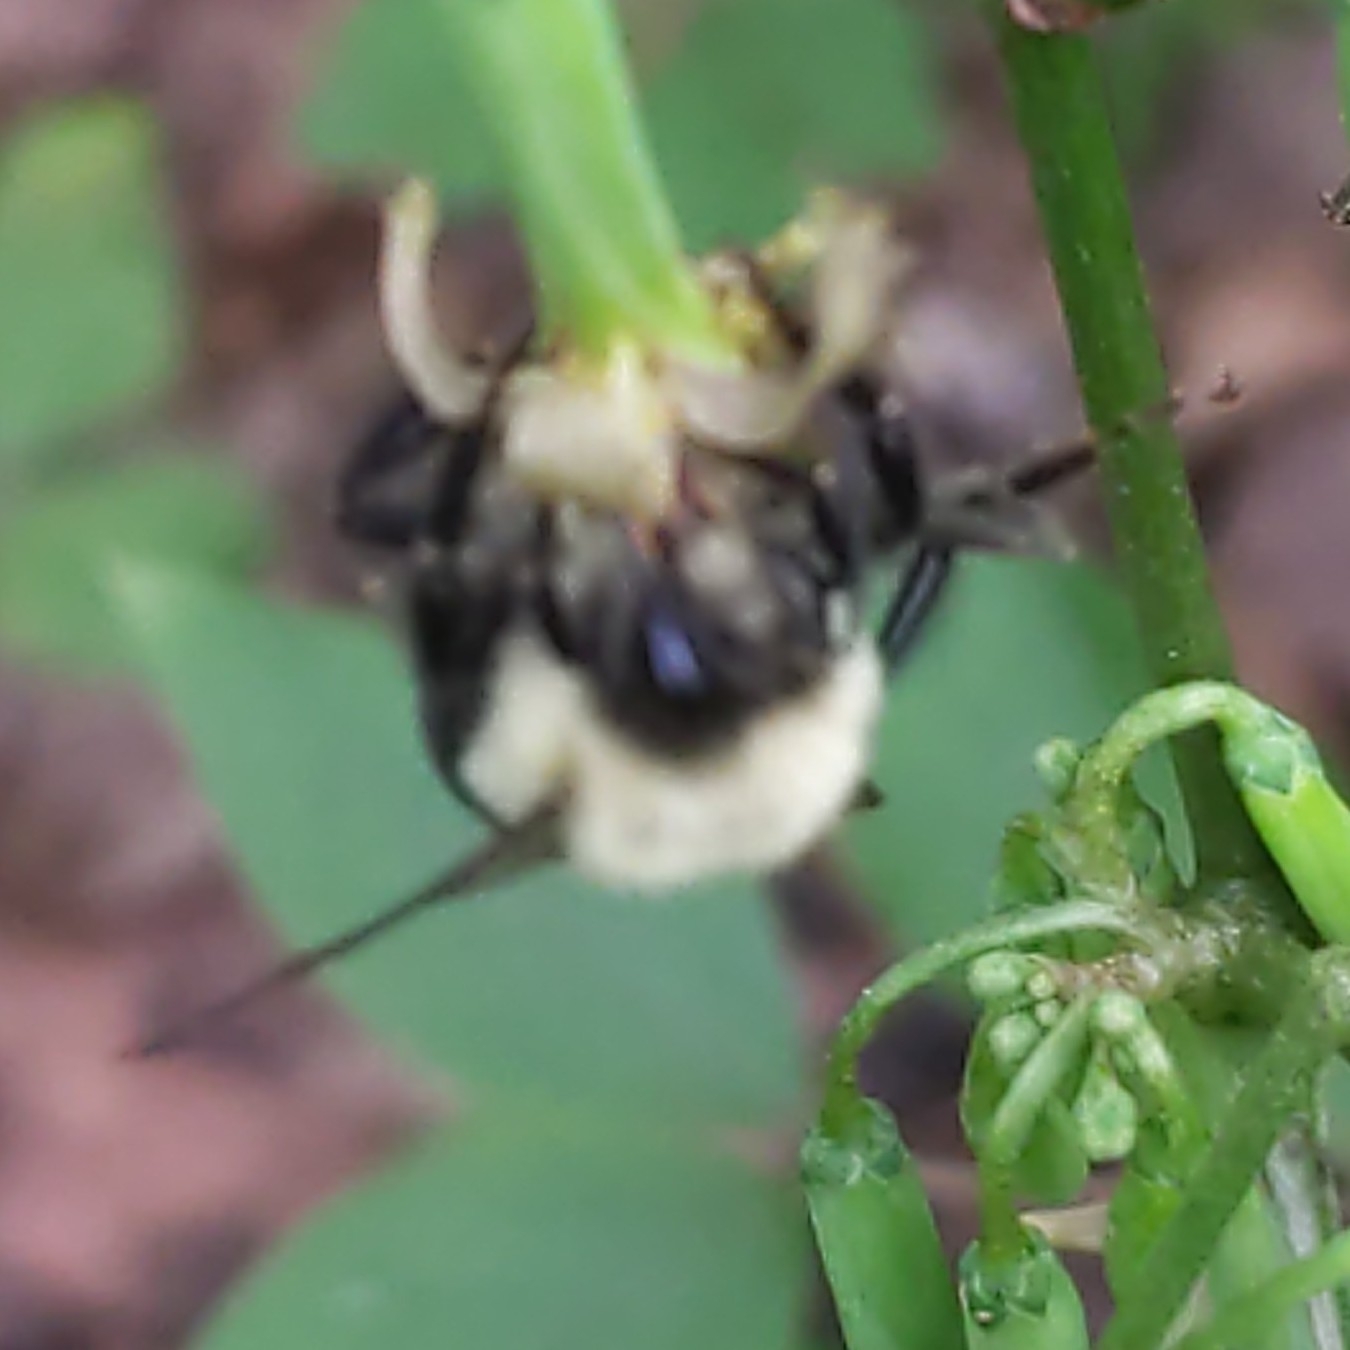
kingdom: Animalia
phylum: Arthropoda
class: Insecta
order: Hymenoptera
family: Apidae
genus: Bombus
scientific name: Bombus impatiens
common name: Common eastern bumble bee
